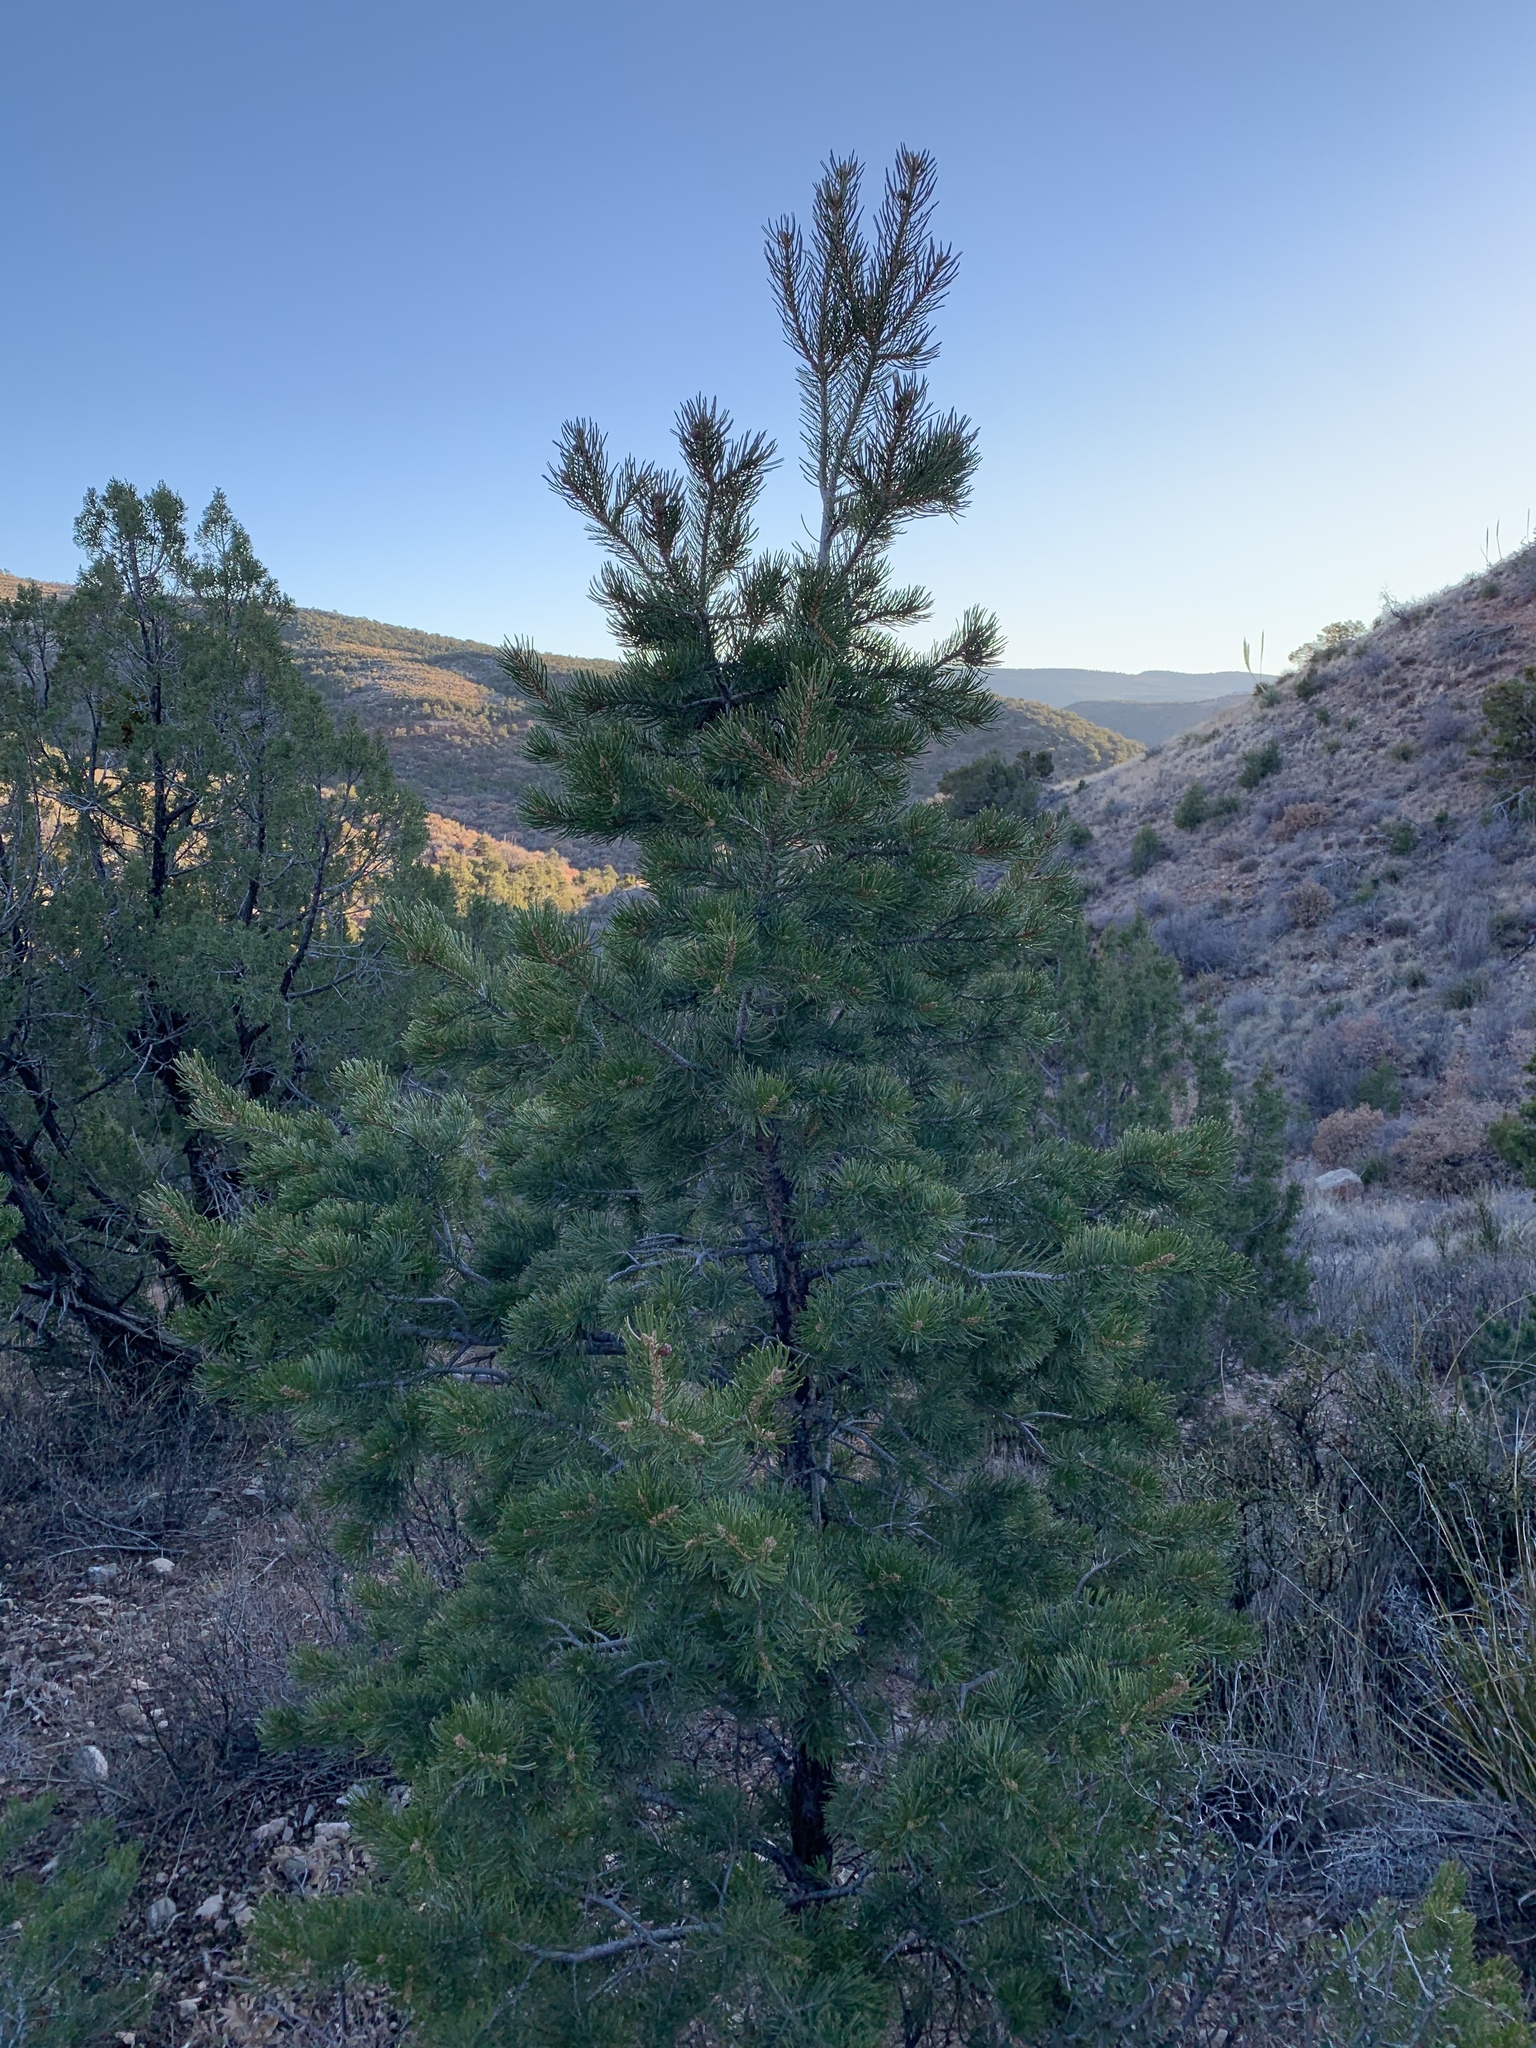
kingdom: Plantae
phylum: Tracheophyta
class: Pinopsida
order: Pinales
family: Pinaceae
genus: Pinus
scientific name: Pinus edulis
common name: Colorado pinyon
